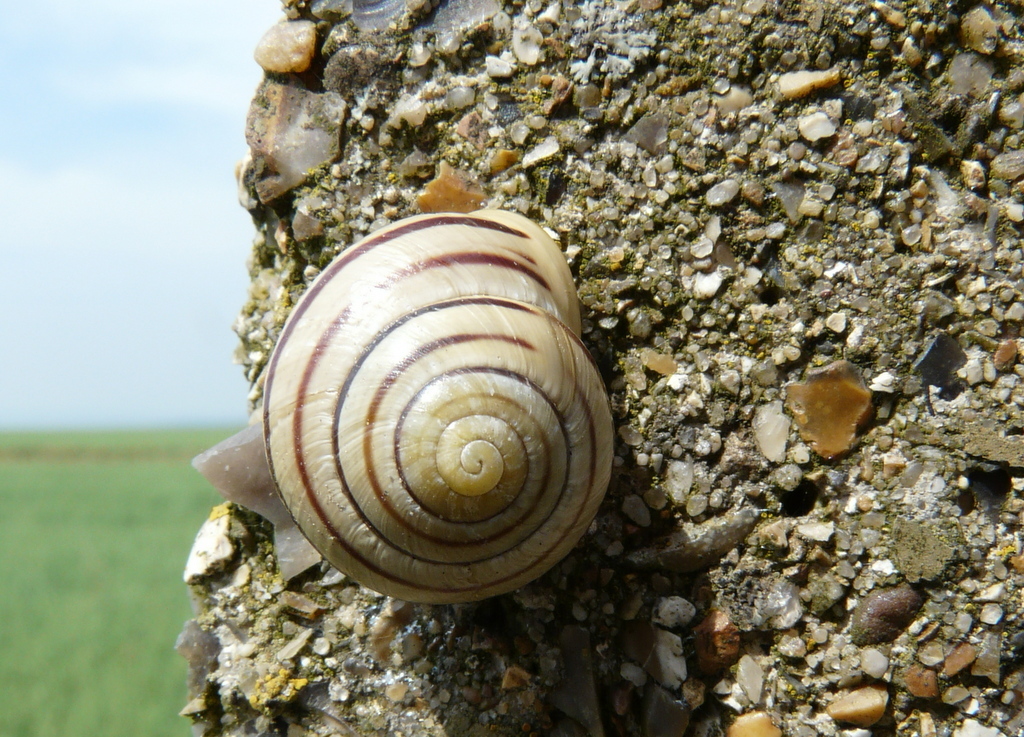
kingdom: Animalia
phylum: Mollusca
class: Gastropoda
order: Stylommatophora
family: Helicidae
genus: Cepaea
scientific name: Cepaea hortensis
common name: White-lip gardensnail
